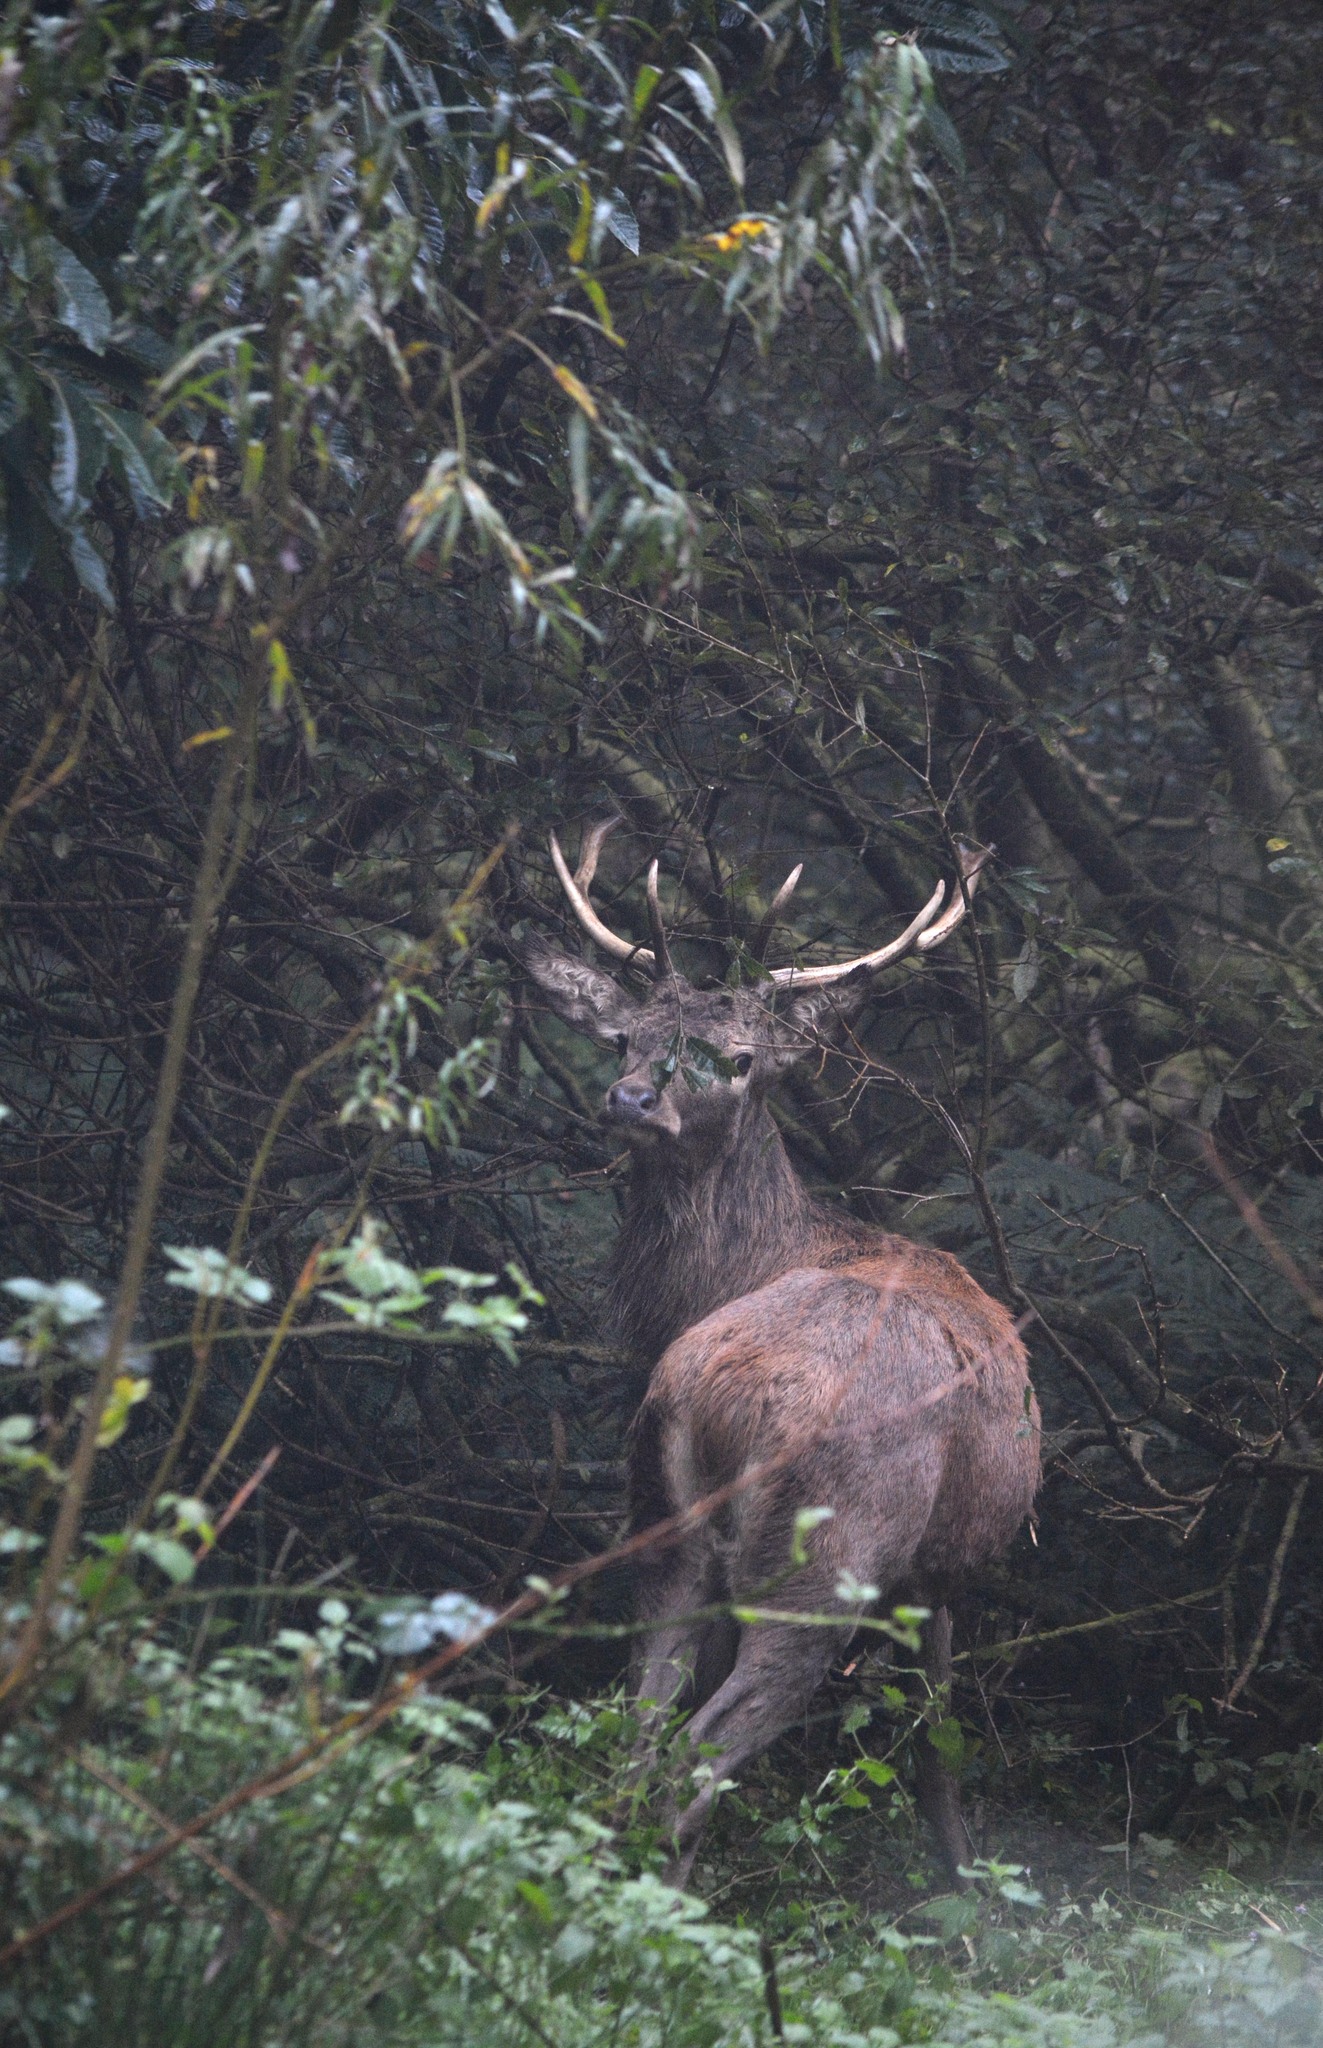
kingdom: Animalia
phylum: Chordata
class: Mammalia
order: Artiodactyla
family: Cervidae
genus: Cervus
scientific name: Cervus elaphus
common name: Red deer
